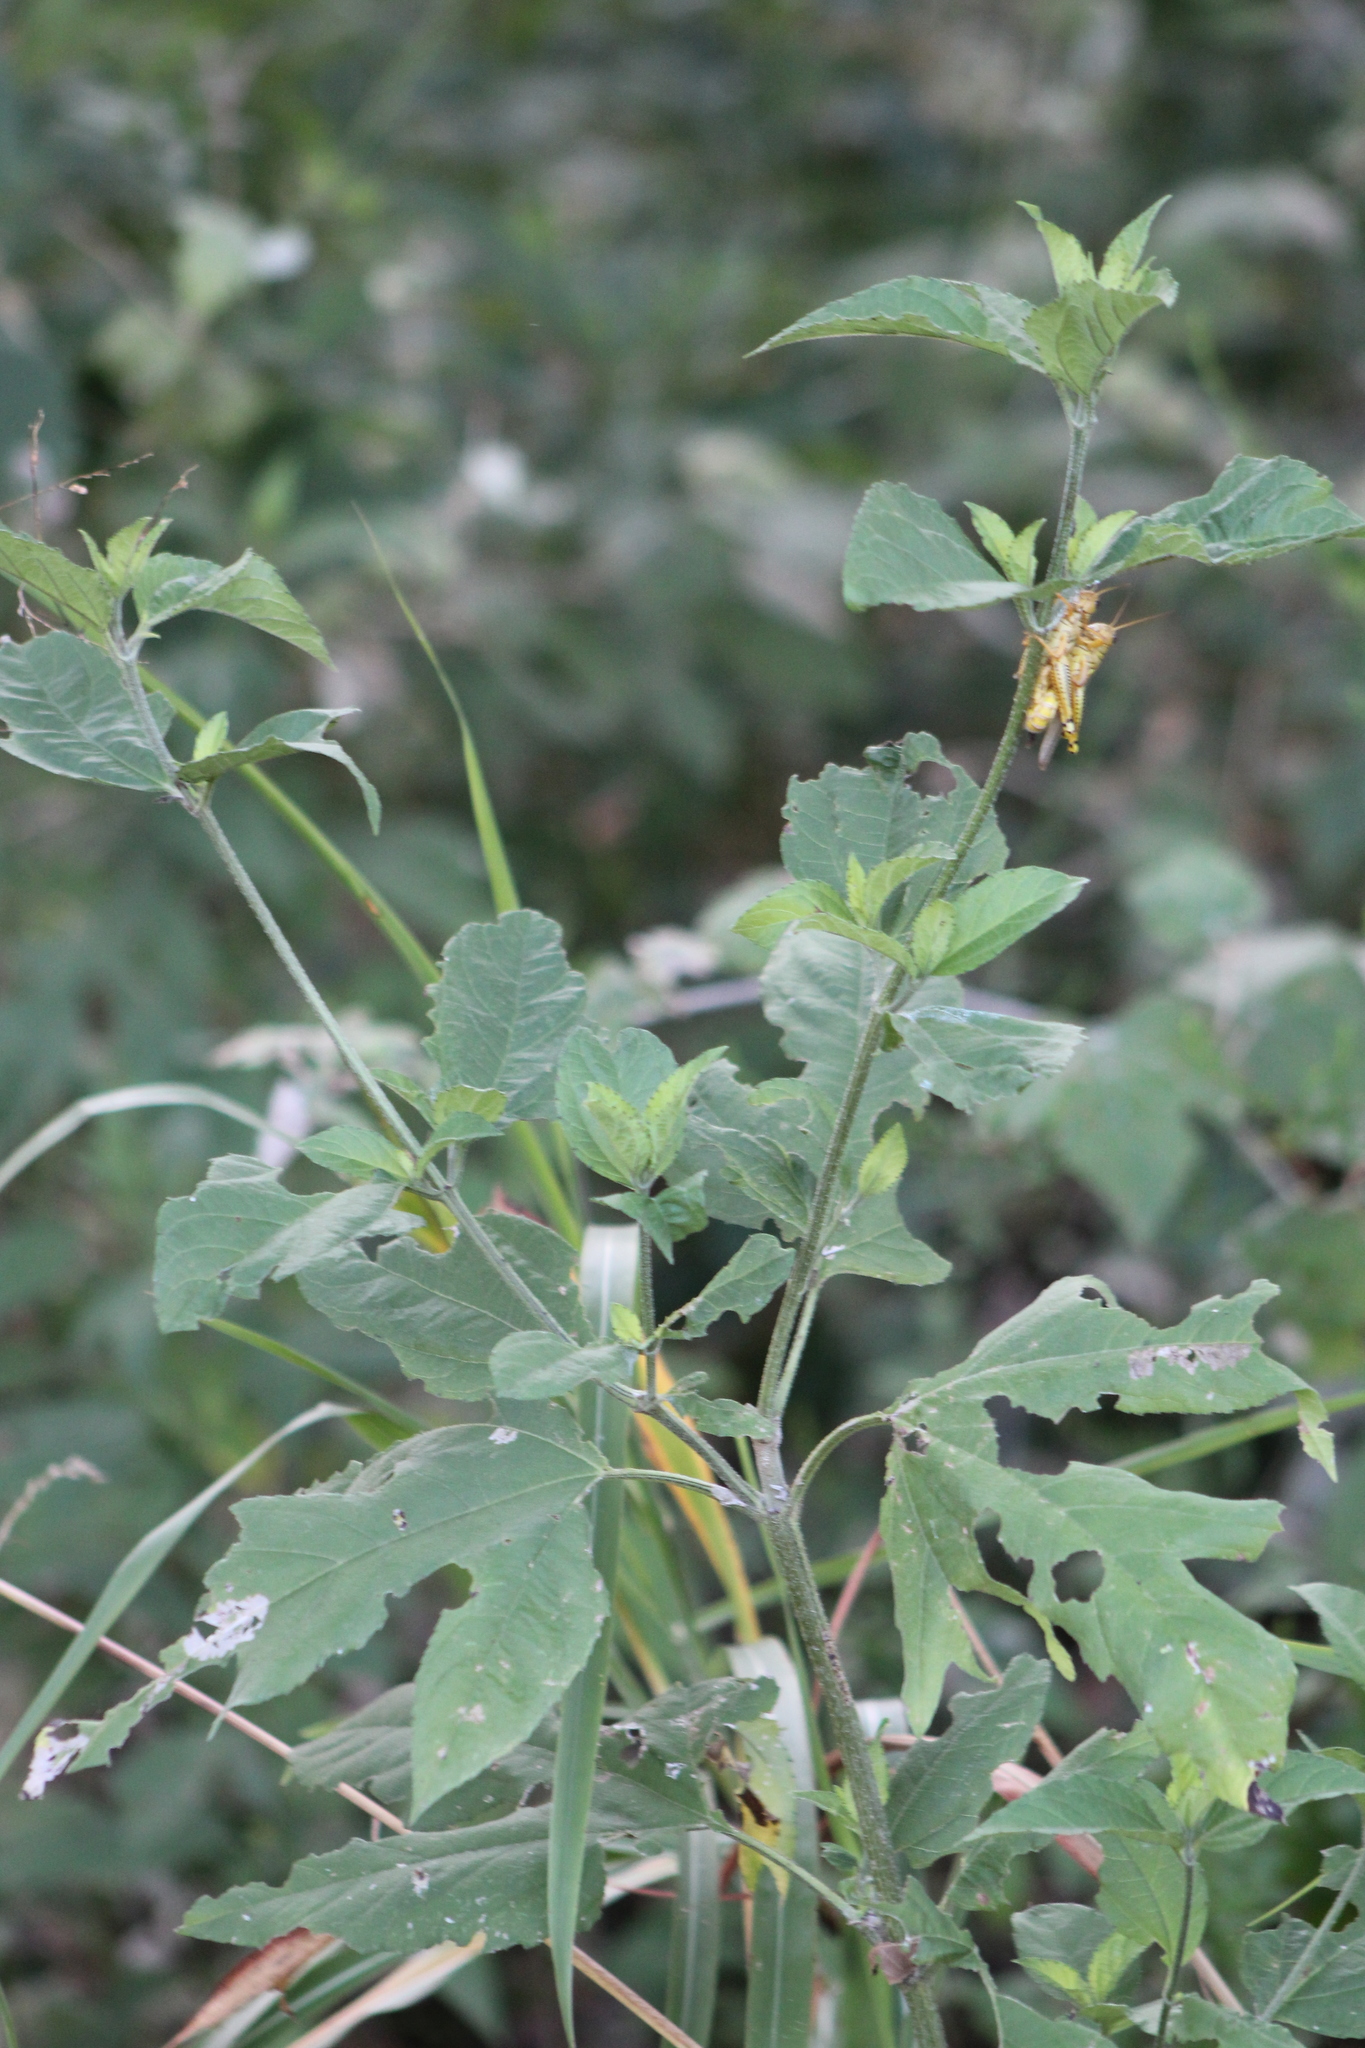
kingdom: Animalia
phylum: Arthropoda
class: Insecta
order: Orthoptera
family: Acrididae
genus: Melanoplus
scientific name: Melanoplus differentialis
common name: Differential grasshopper
